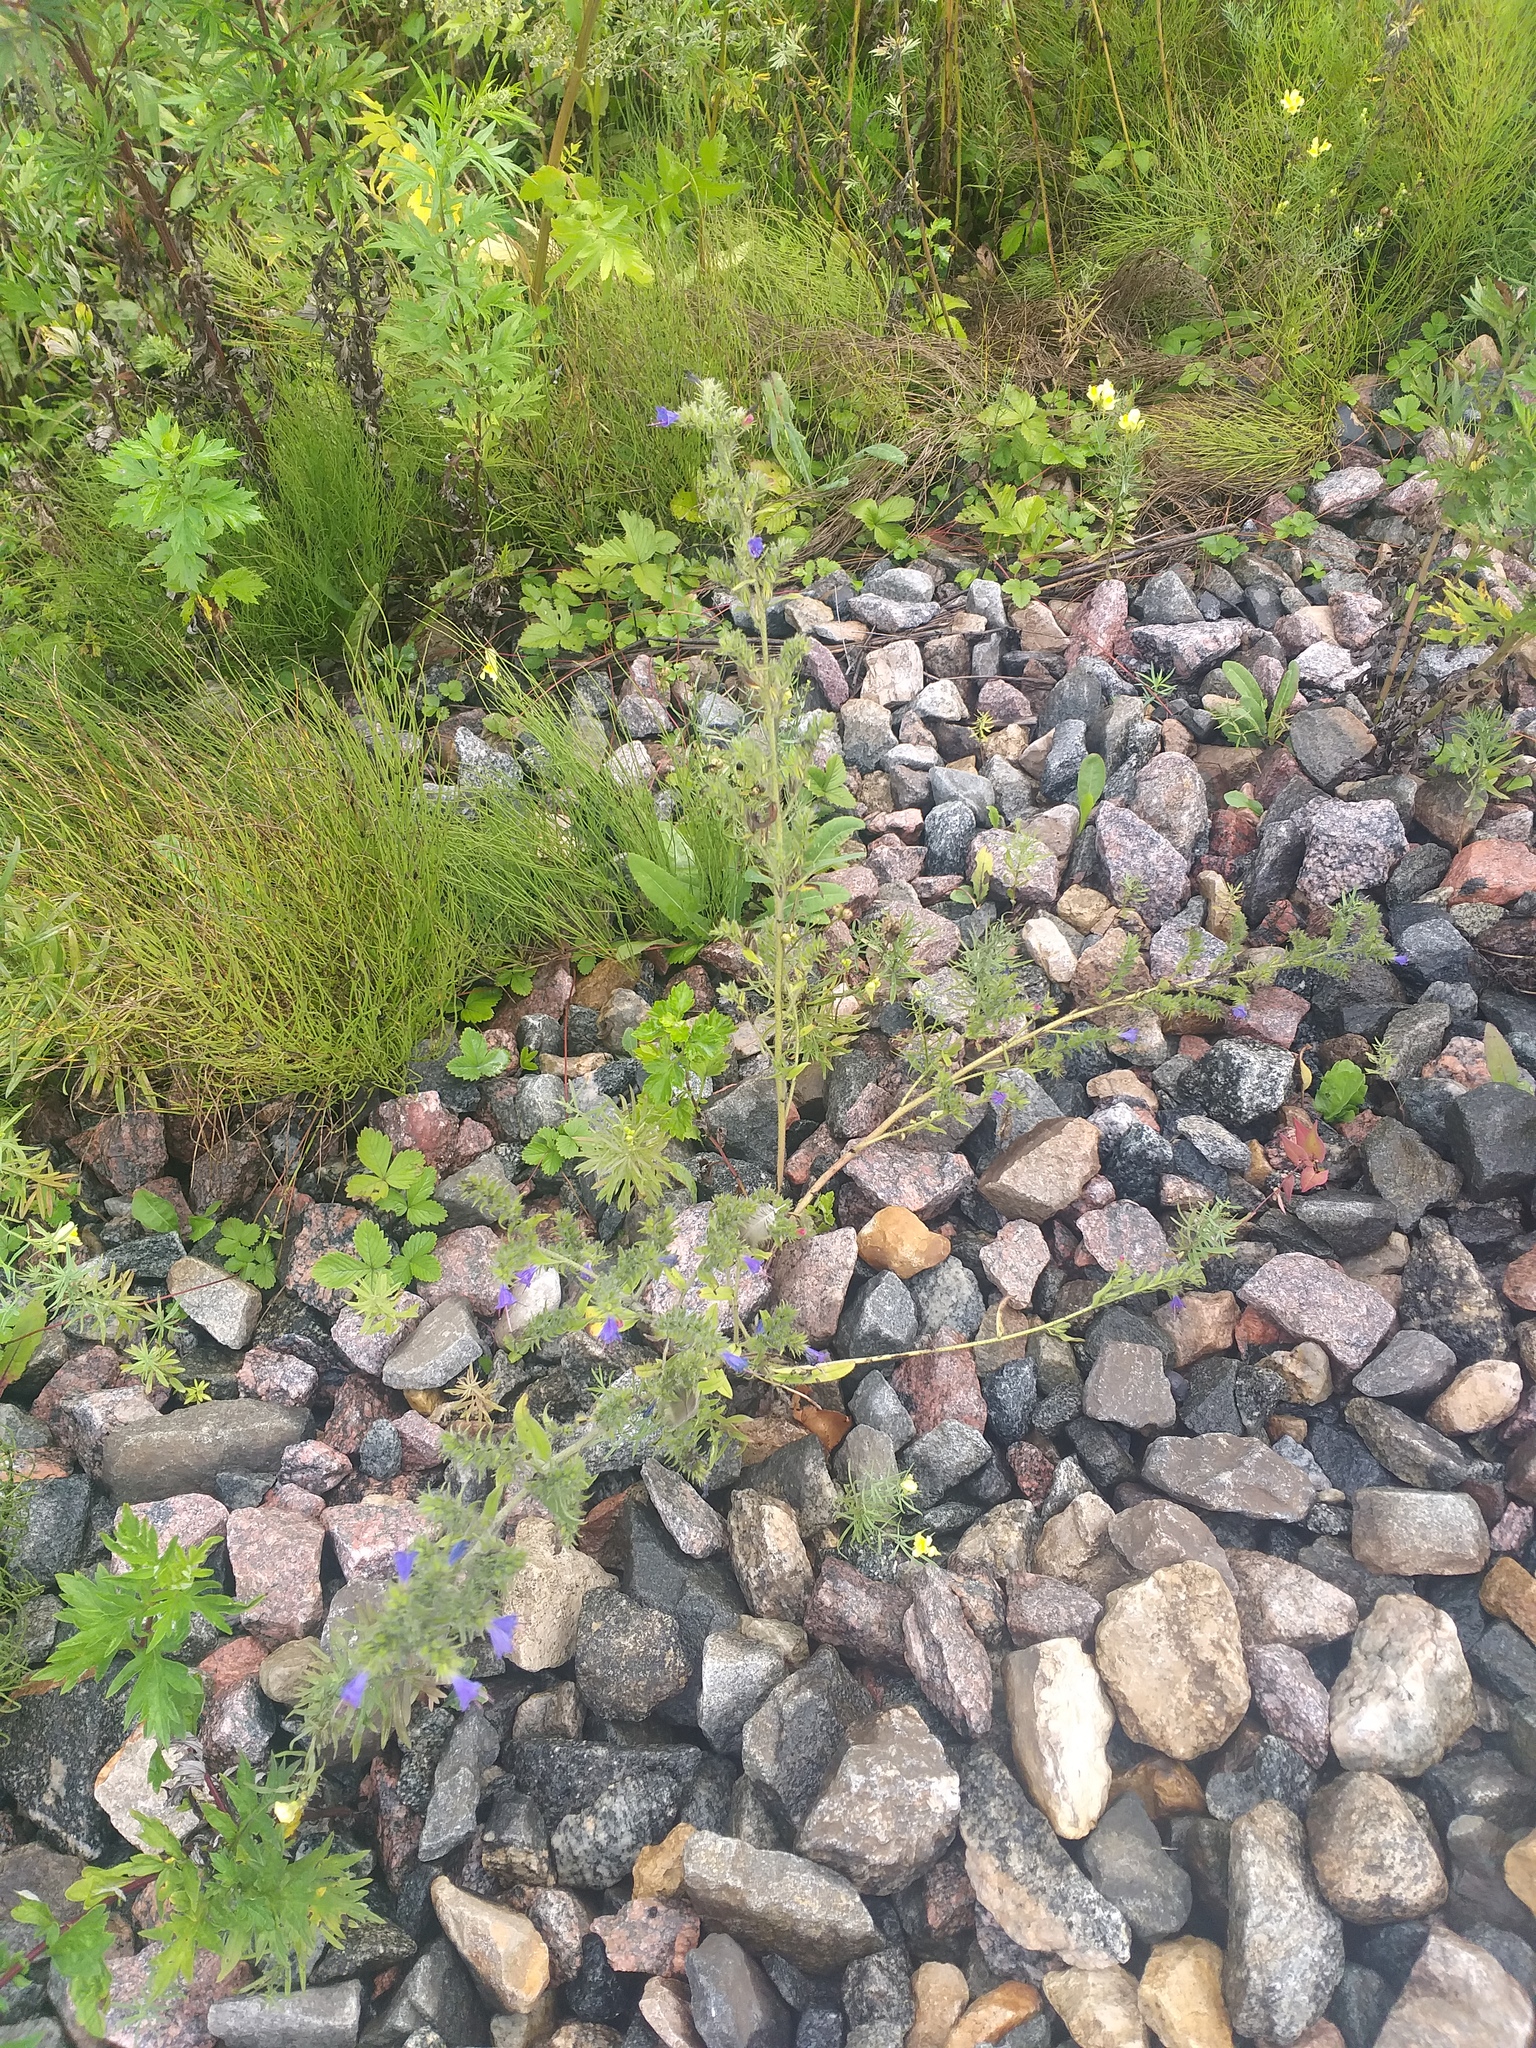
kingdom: Plantae
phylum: Tracheophyta
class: Magnoliopsida
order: Boraginales
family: Boraginaceae
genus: Echium
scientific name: Echium vulgare
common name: Common viper's bugloss
